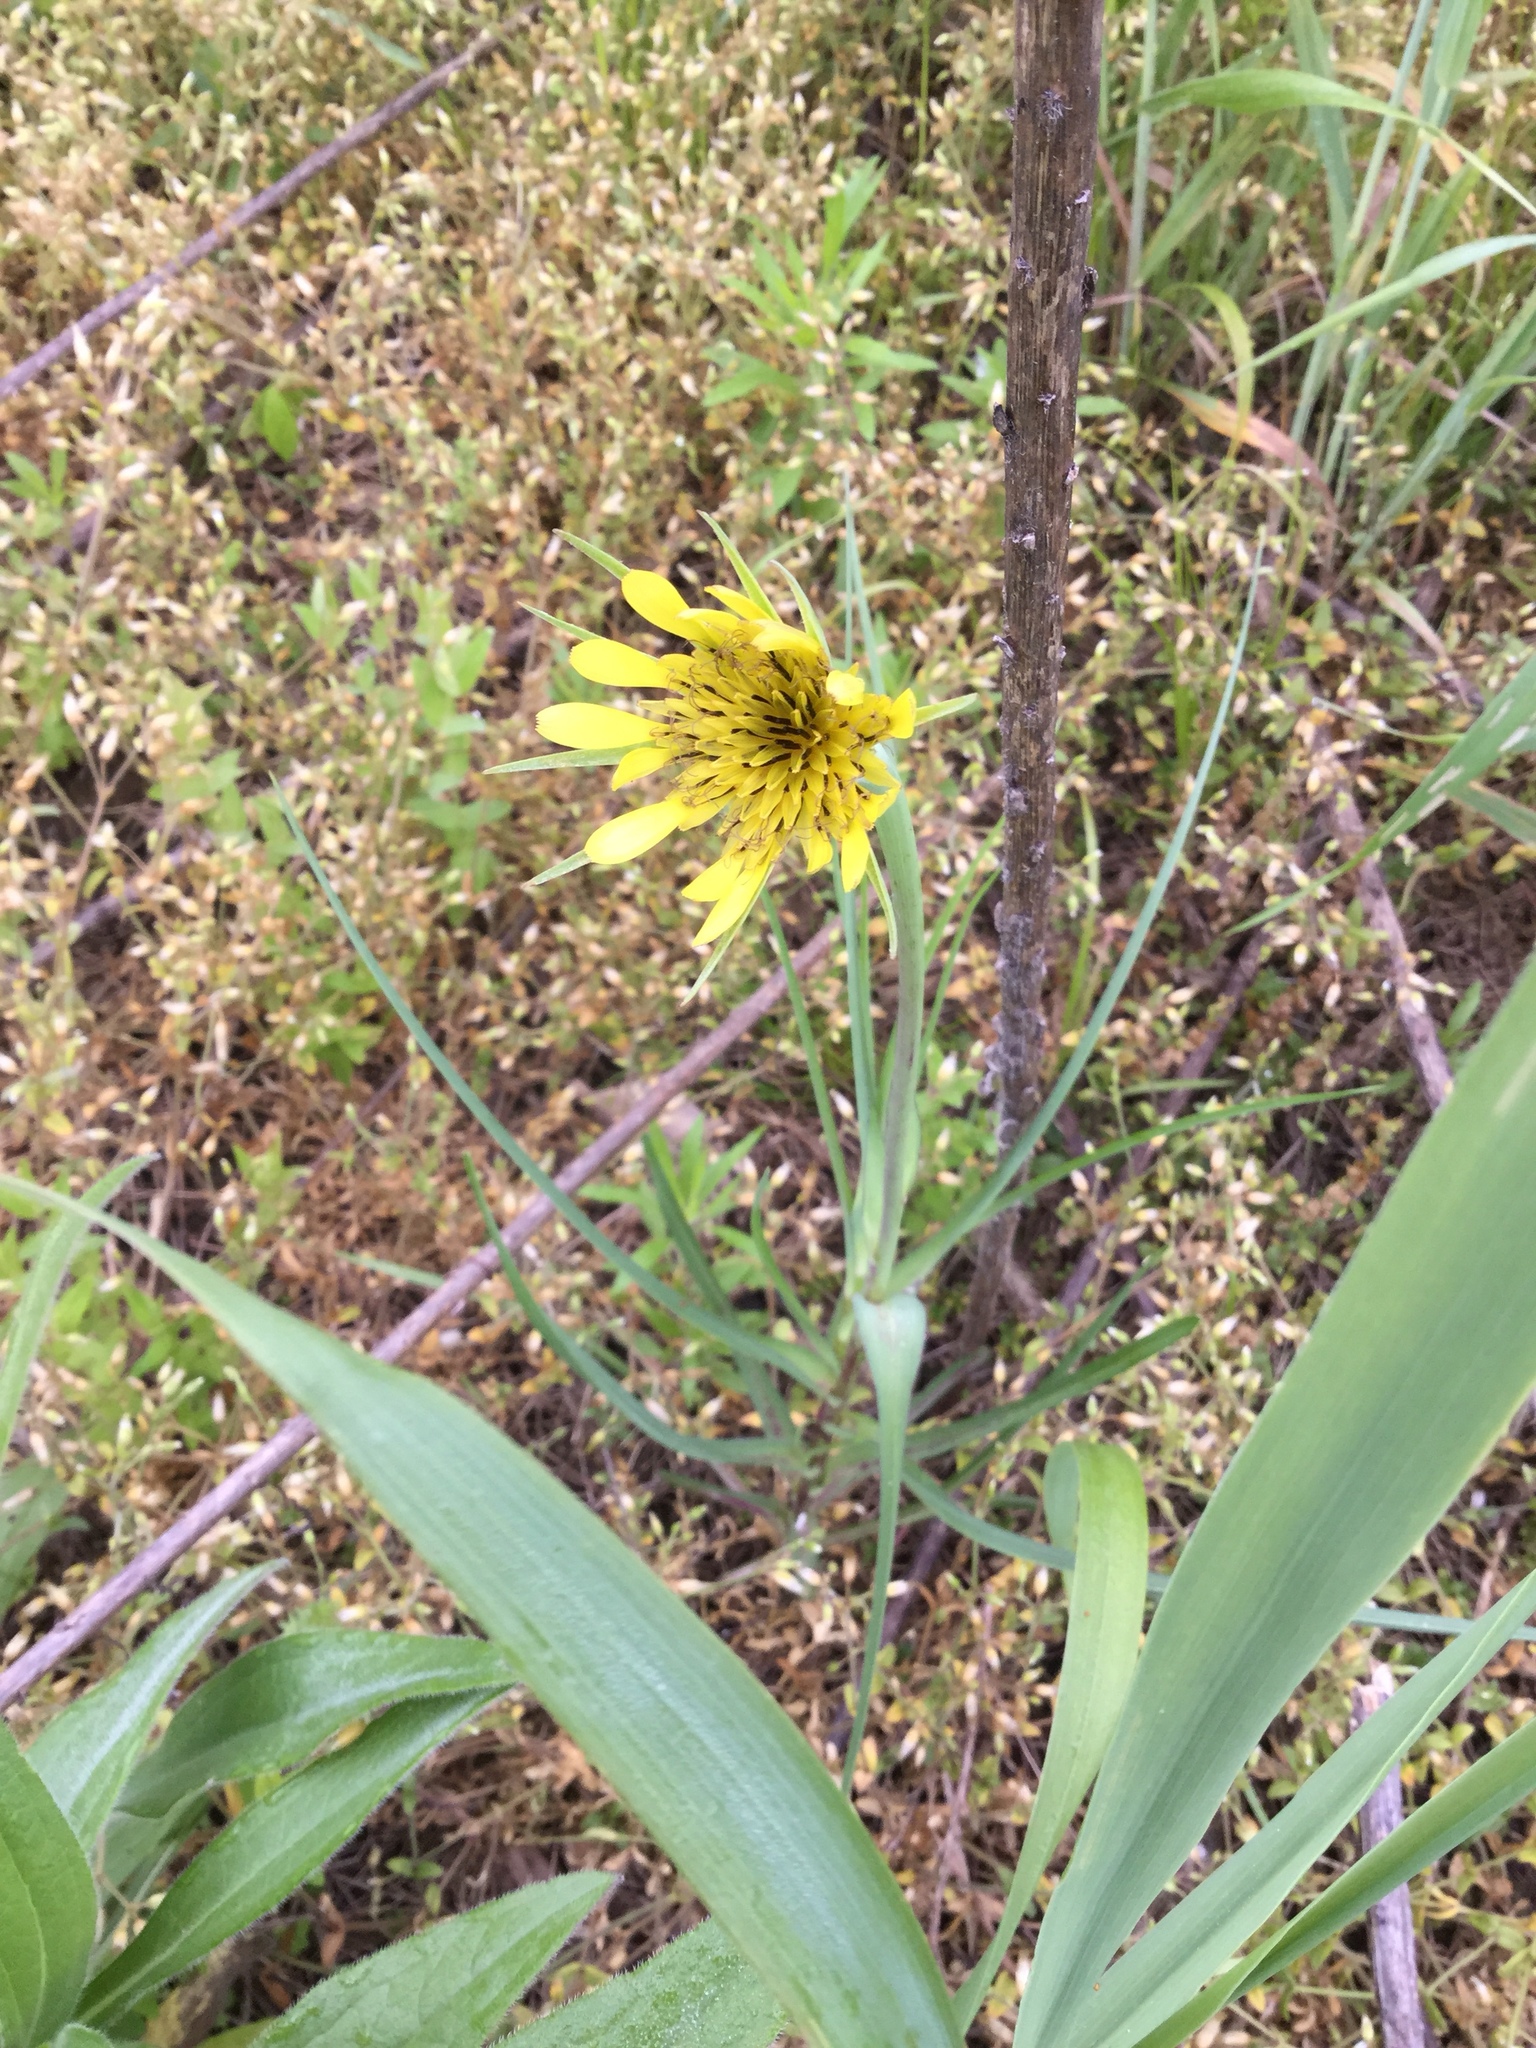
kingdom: Plantae
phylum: Tracheophyta
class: Magnoliopsida
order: Asterales
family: Asteraceae
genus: Tragopogon
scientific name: Tragopogon dubius
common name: Yellow salsify
